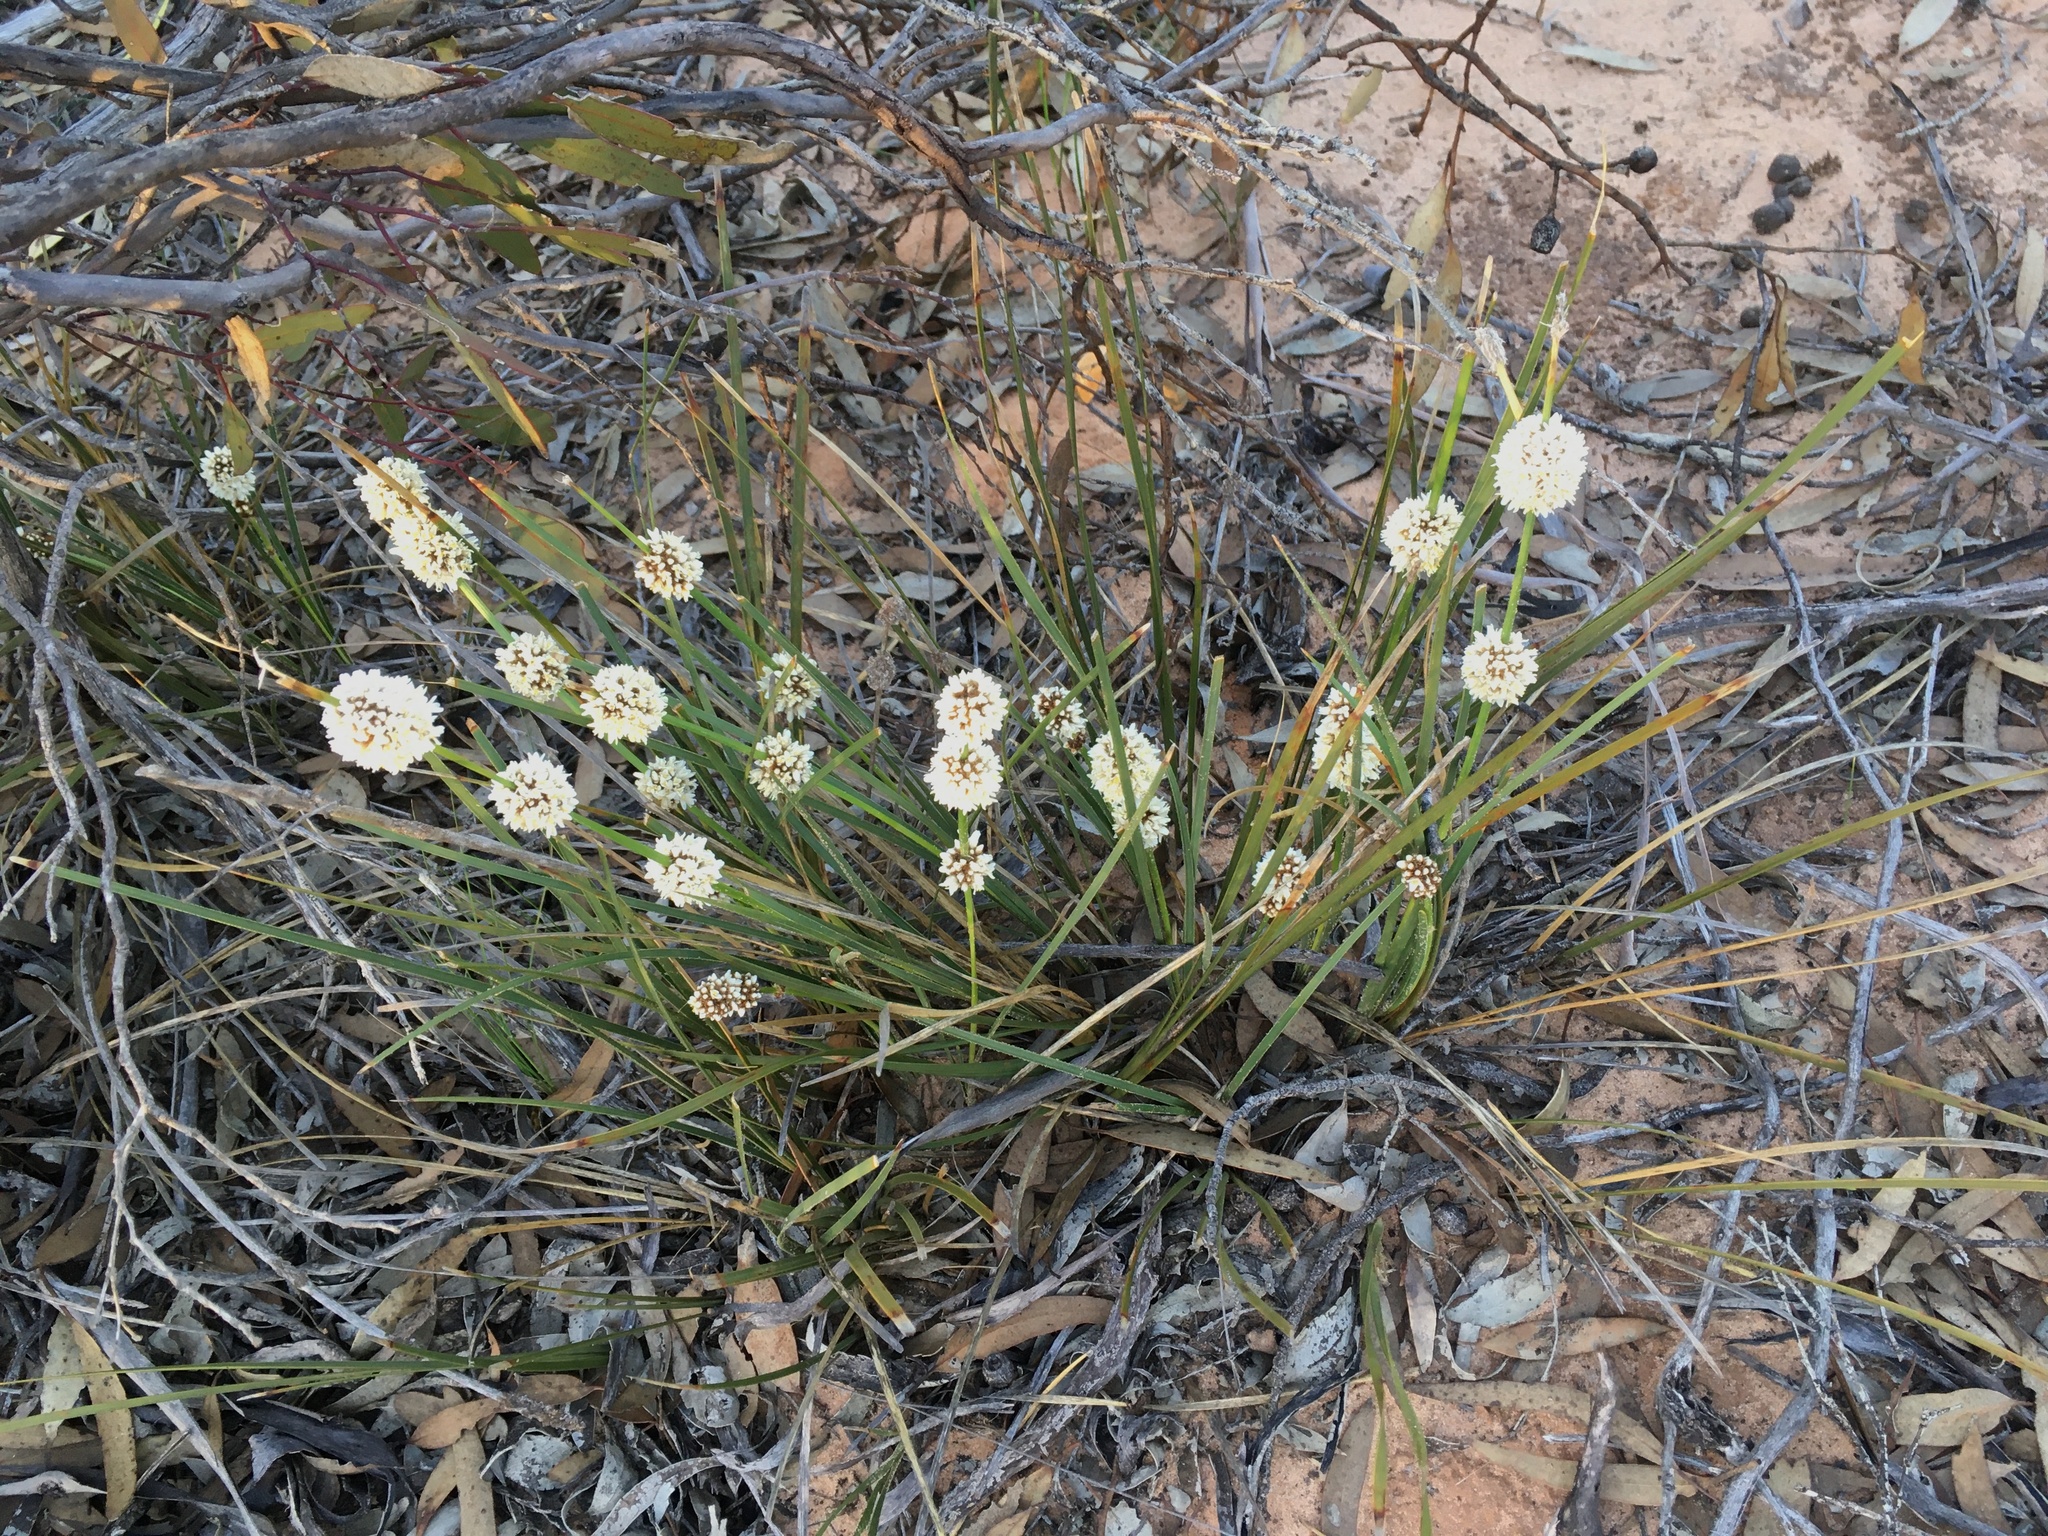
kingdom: Plantae
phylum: Tracheophyta
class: Liliopsida
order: Asparagales
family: Asparagaceae
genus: Lomandra
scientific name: Lomandra leucocephala
